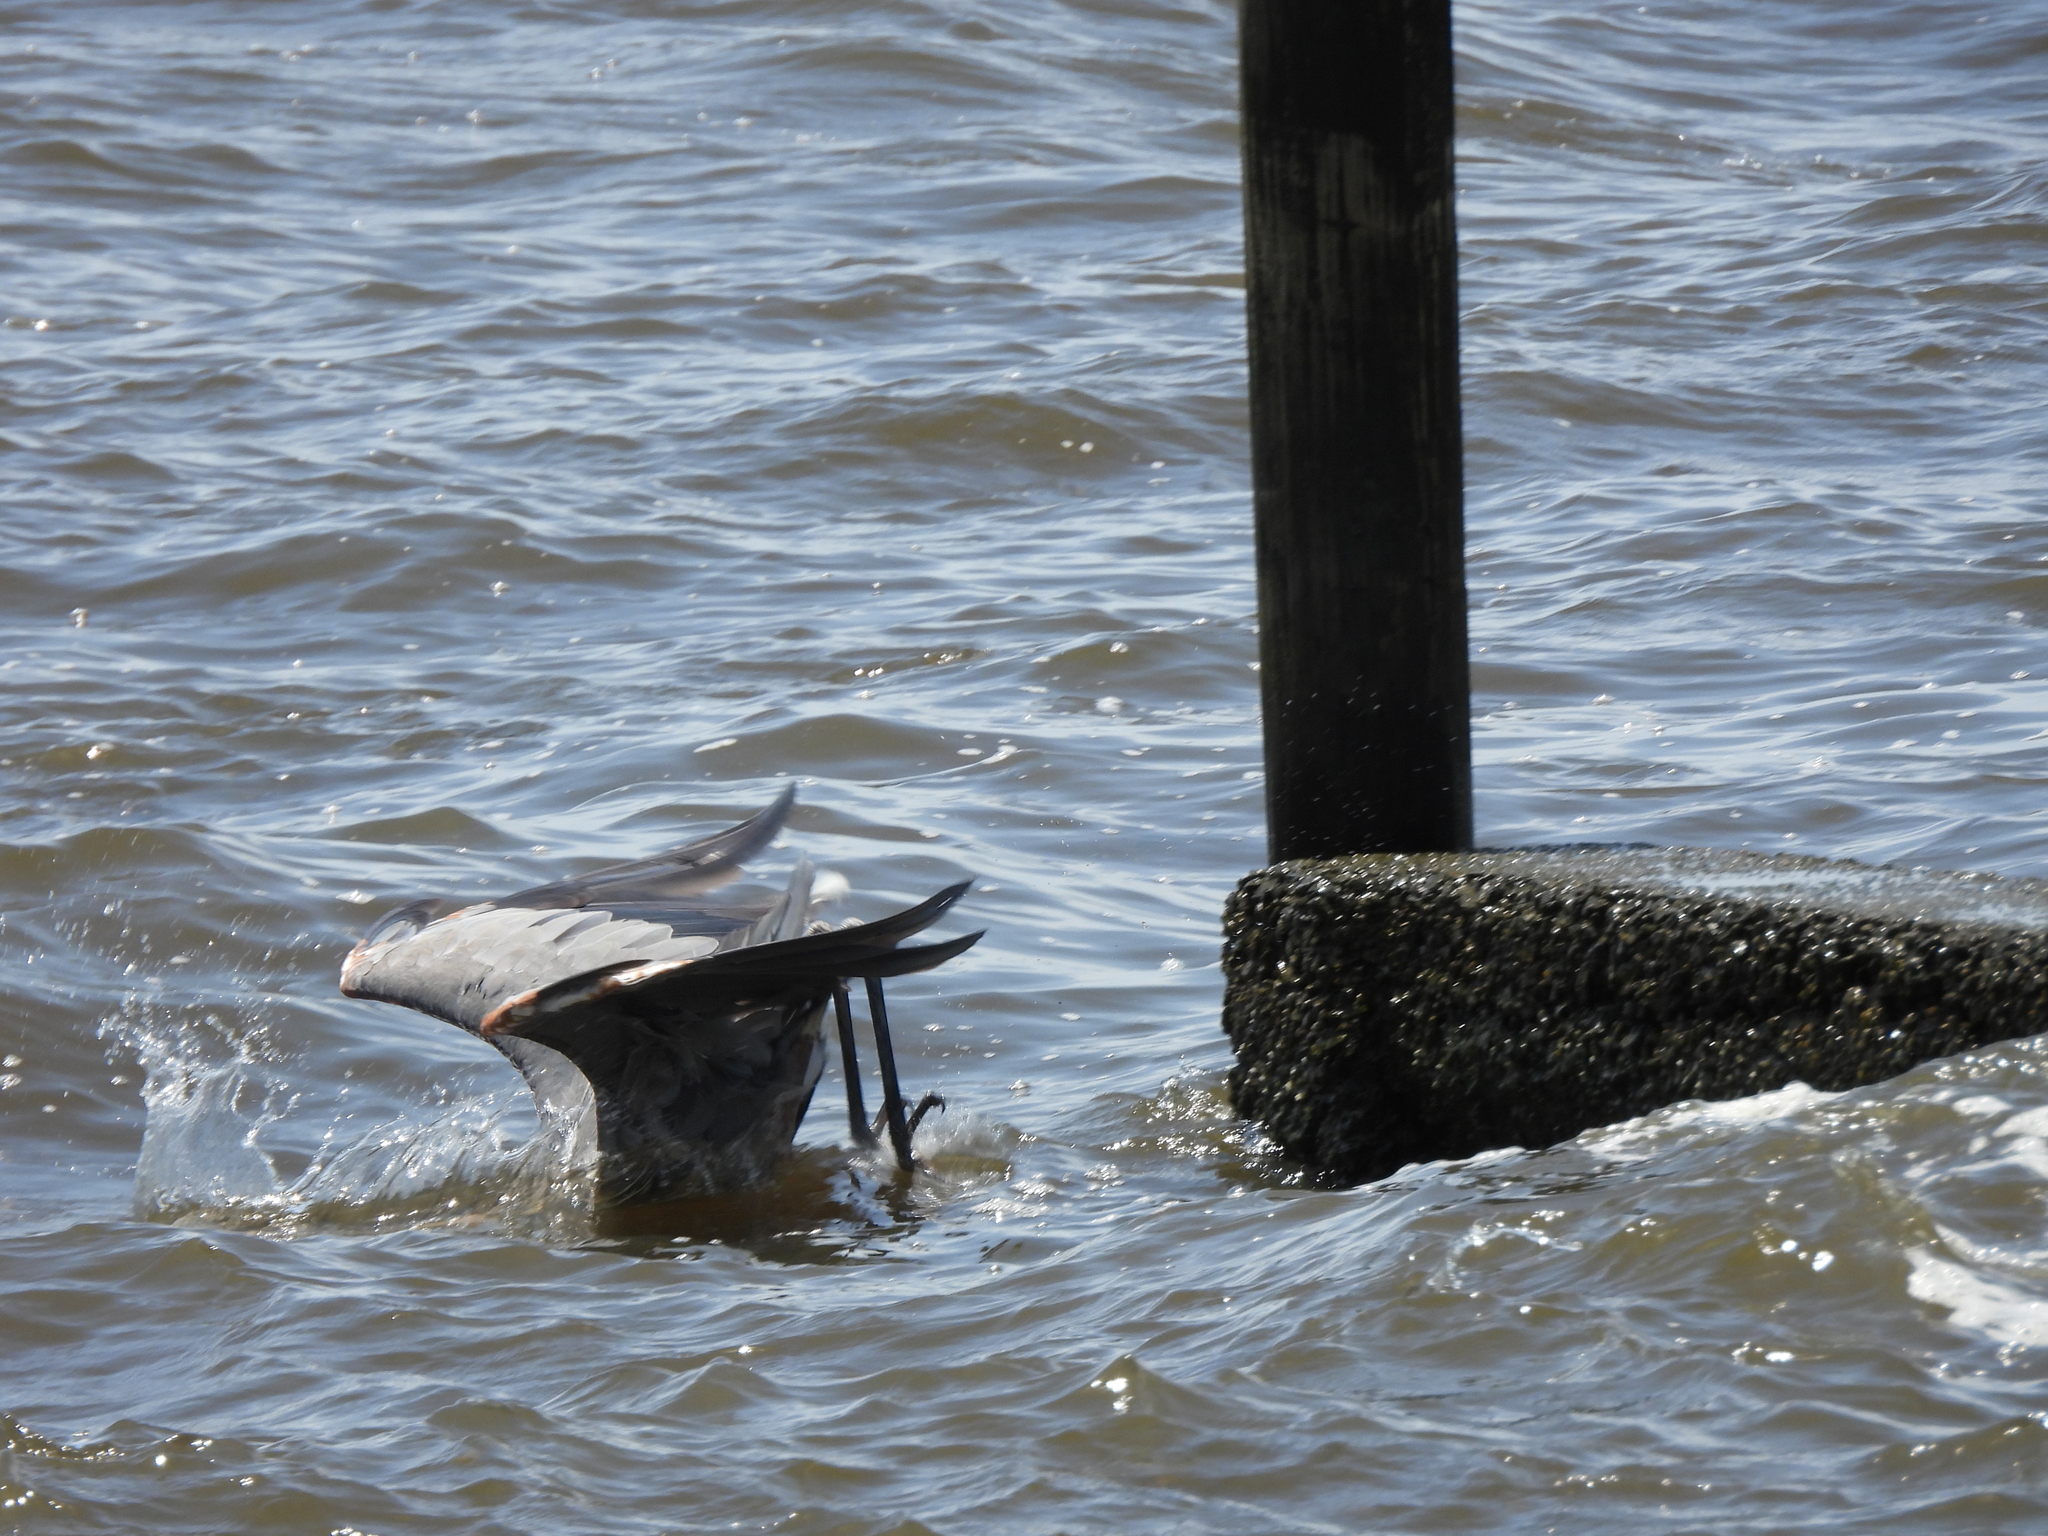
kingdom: Animalia
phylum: Chordata
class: Aves
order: Pelecaniformes
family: Ardeidae
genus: Ardea
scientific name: Ardea herodias
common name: Great blue heron
